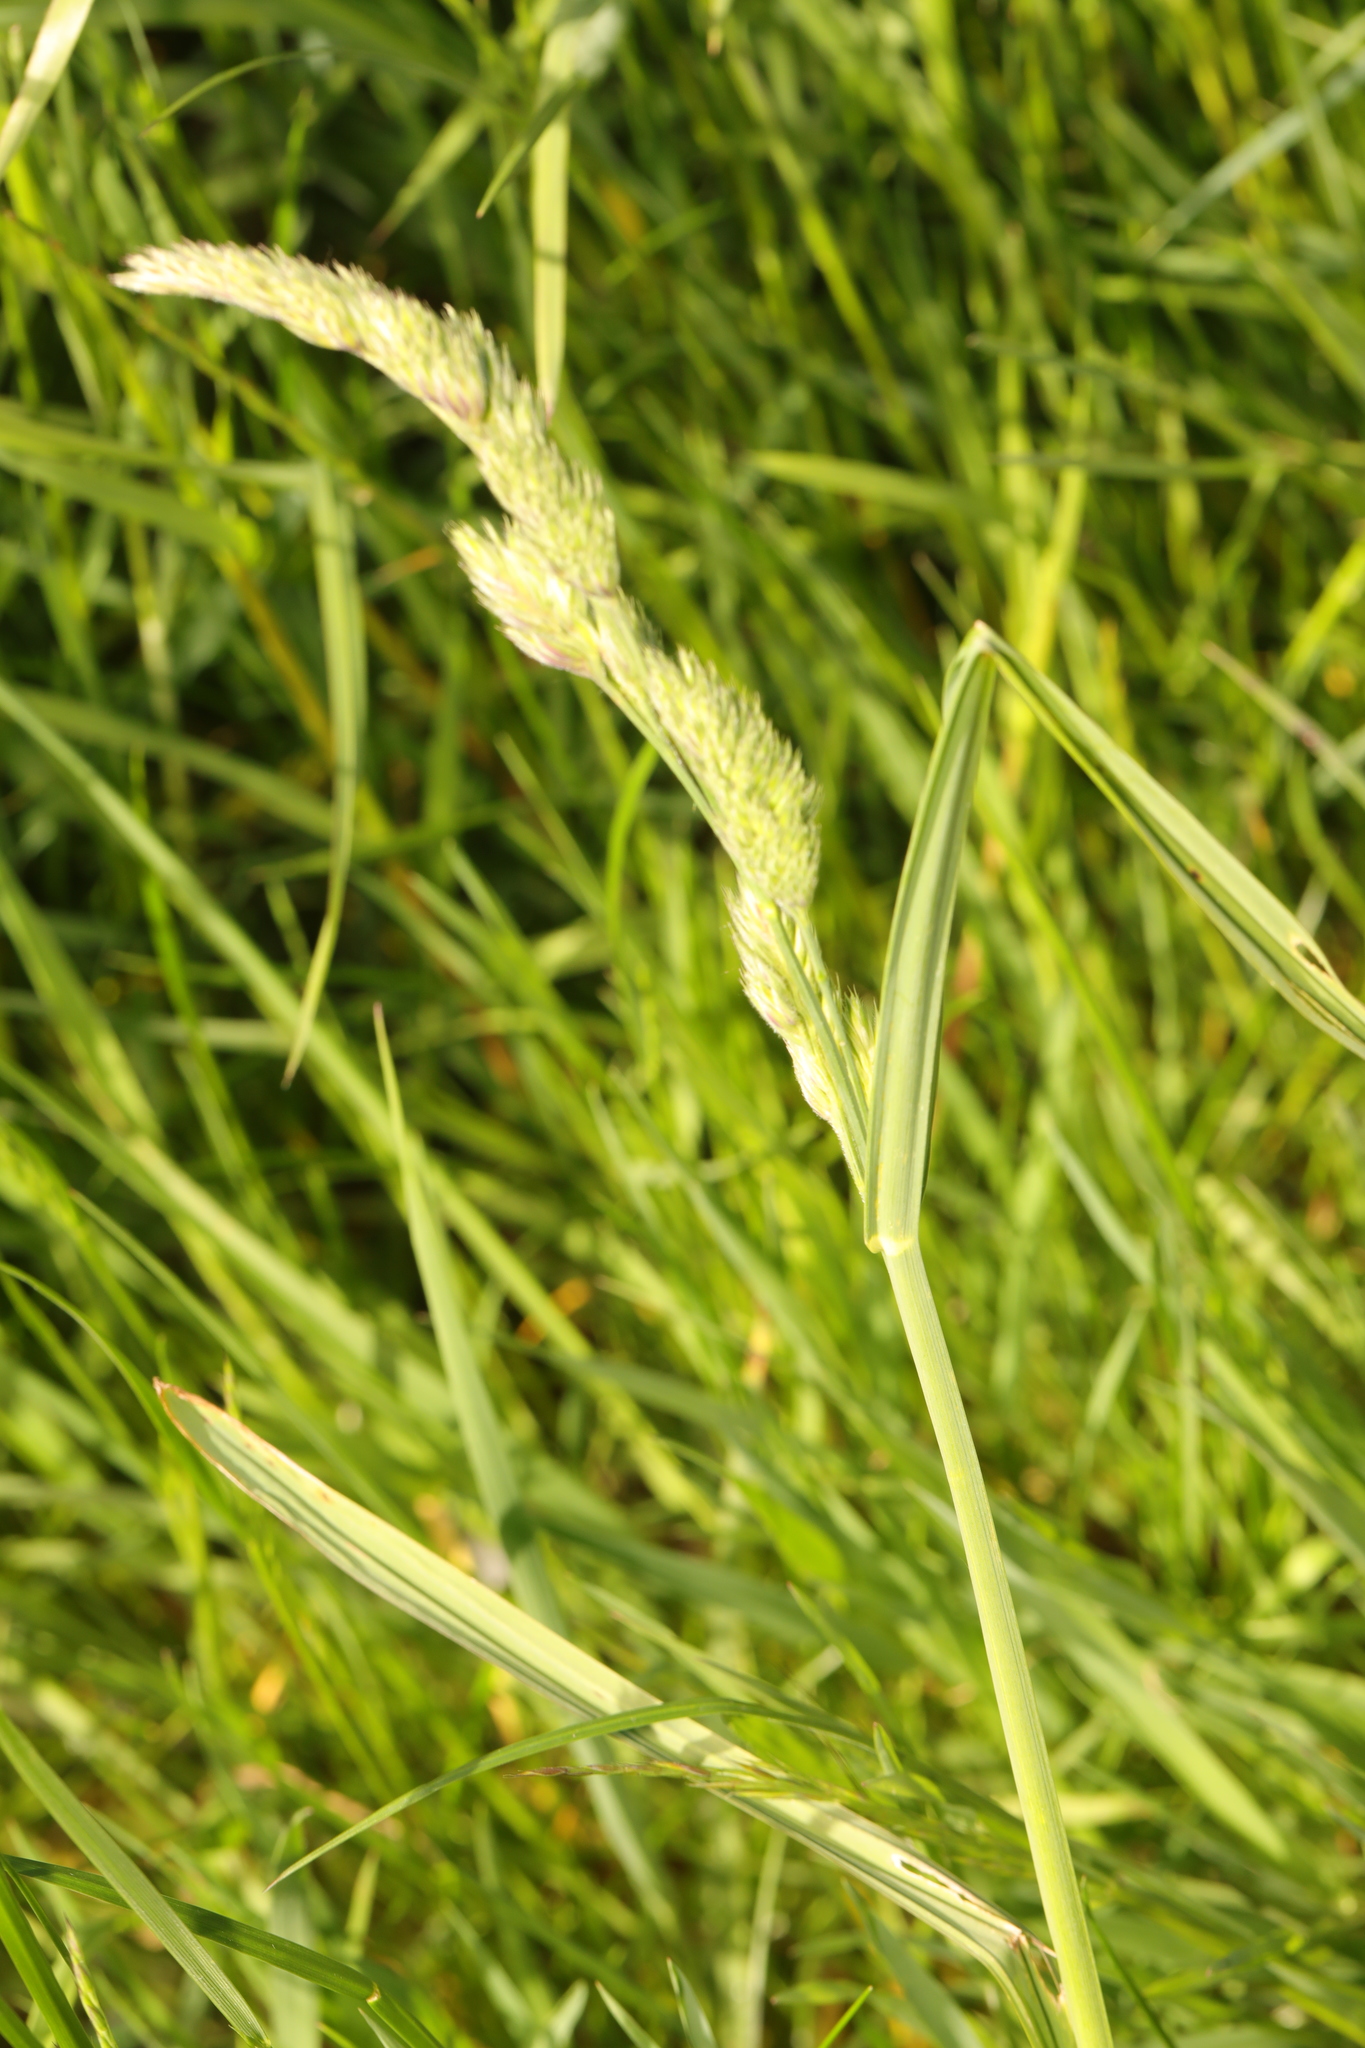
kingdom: Plantae
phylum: Tracheophyta
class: Liliopsida
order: Poales
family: Poaceae
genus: Dactylis
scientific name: Dactylis glomerata
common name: Orchardgrass
